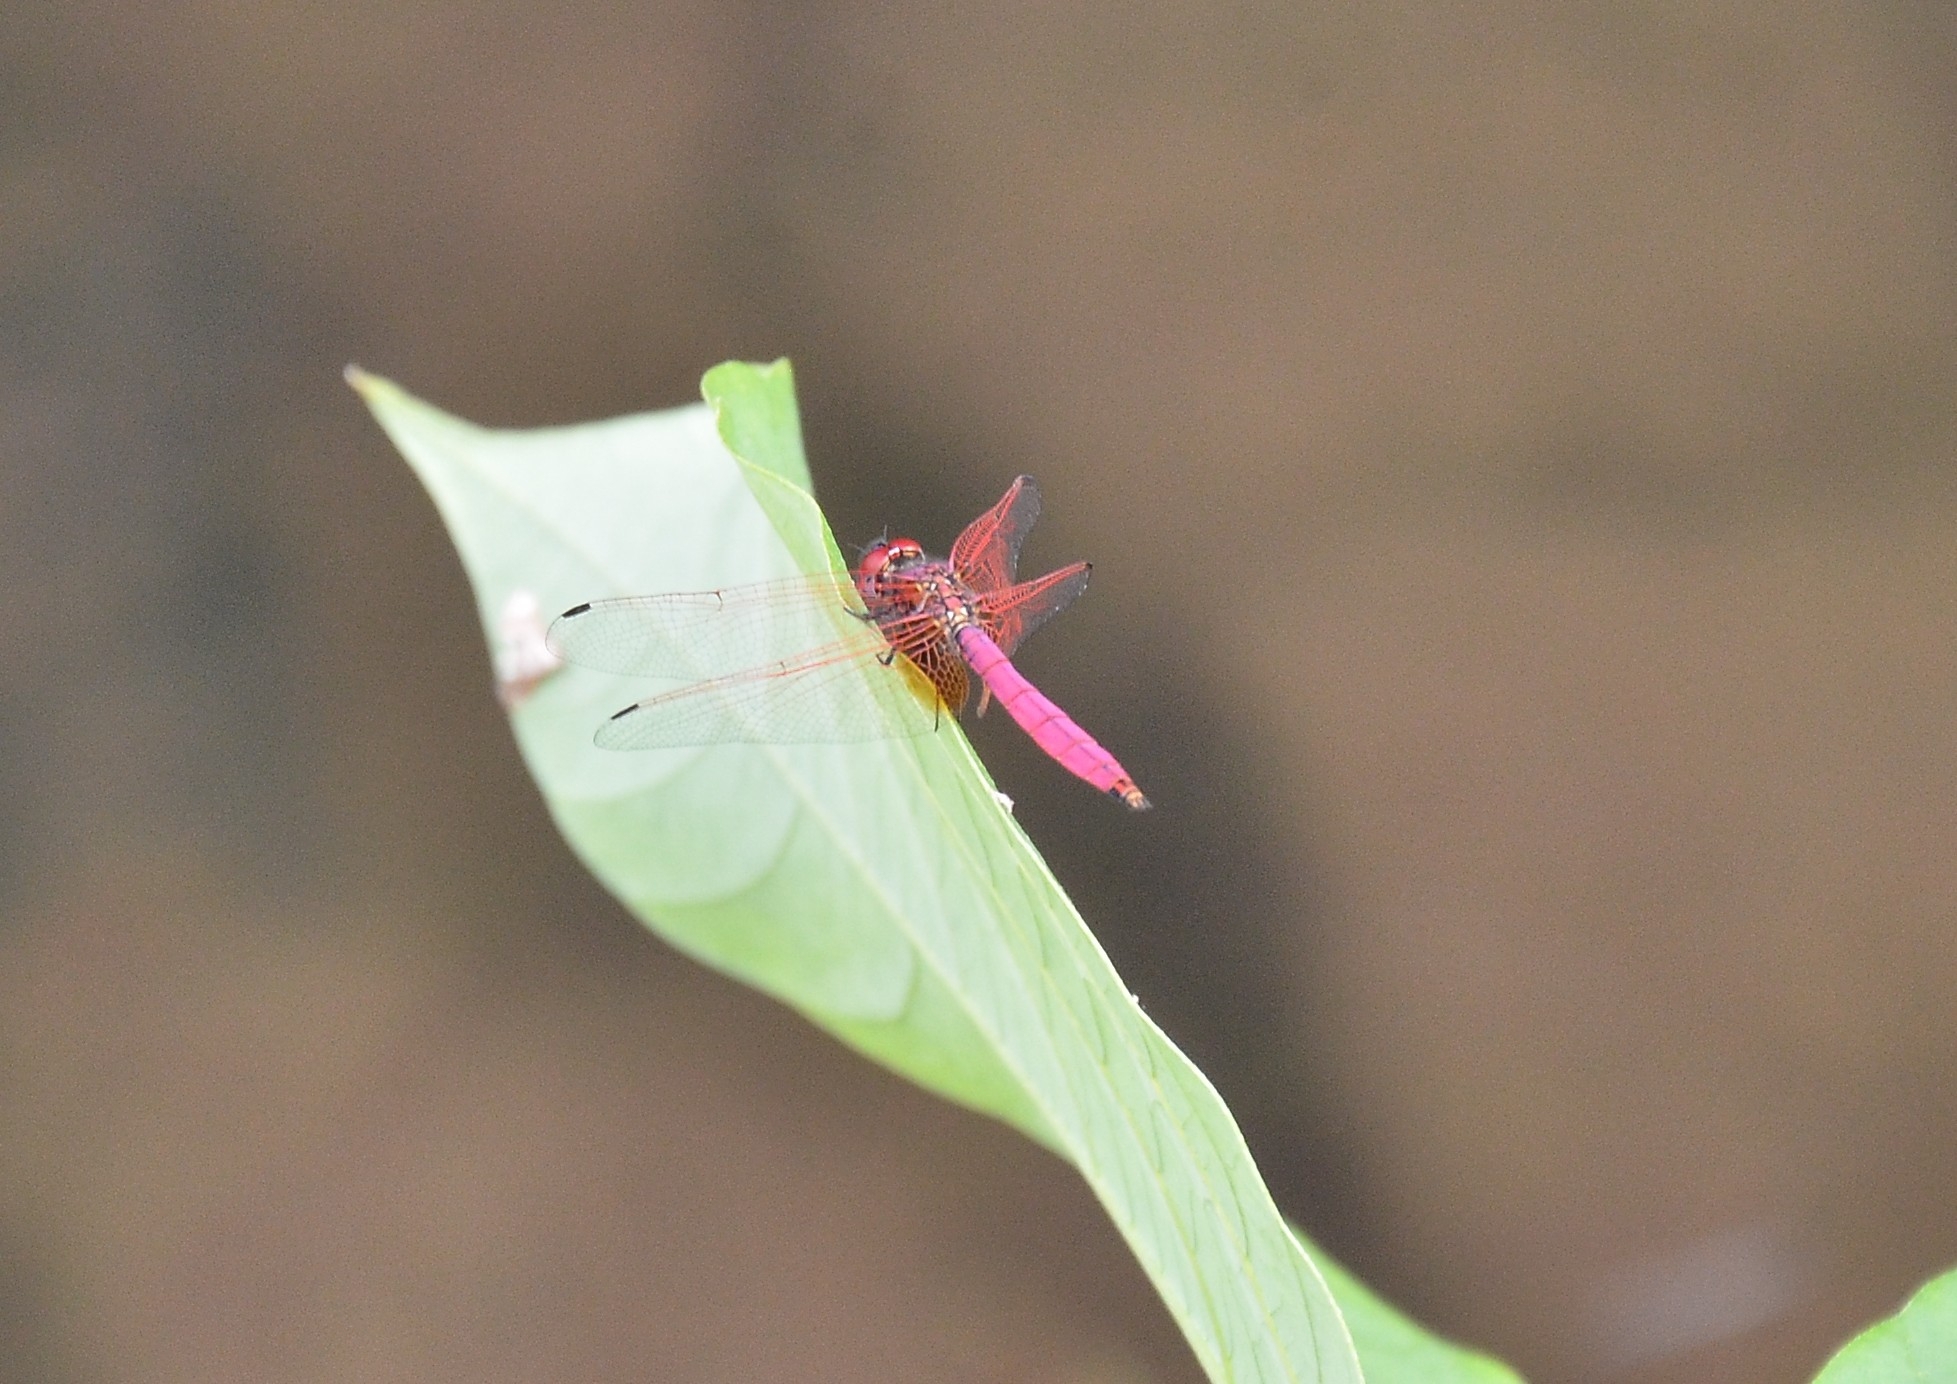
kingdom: Animalia
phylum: Arthropoda
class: Insecta
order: Odonata
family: Libellulidae
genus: Trithemis
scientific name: Trithemis aurora
